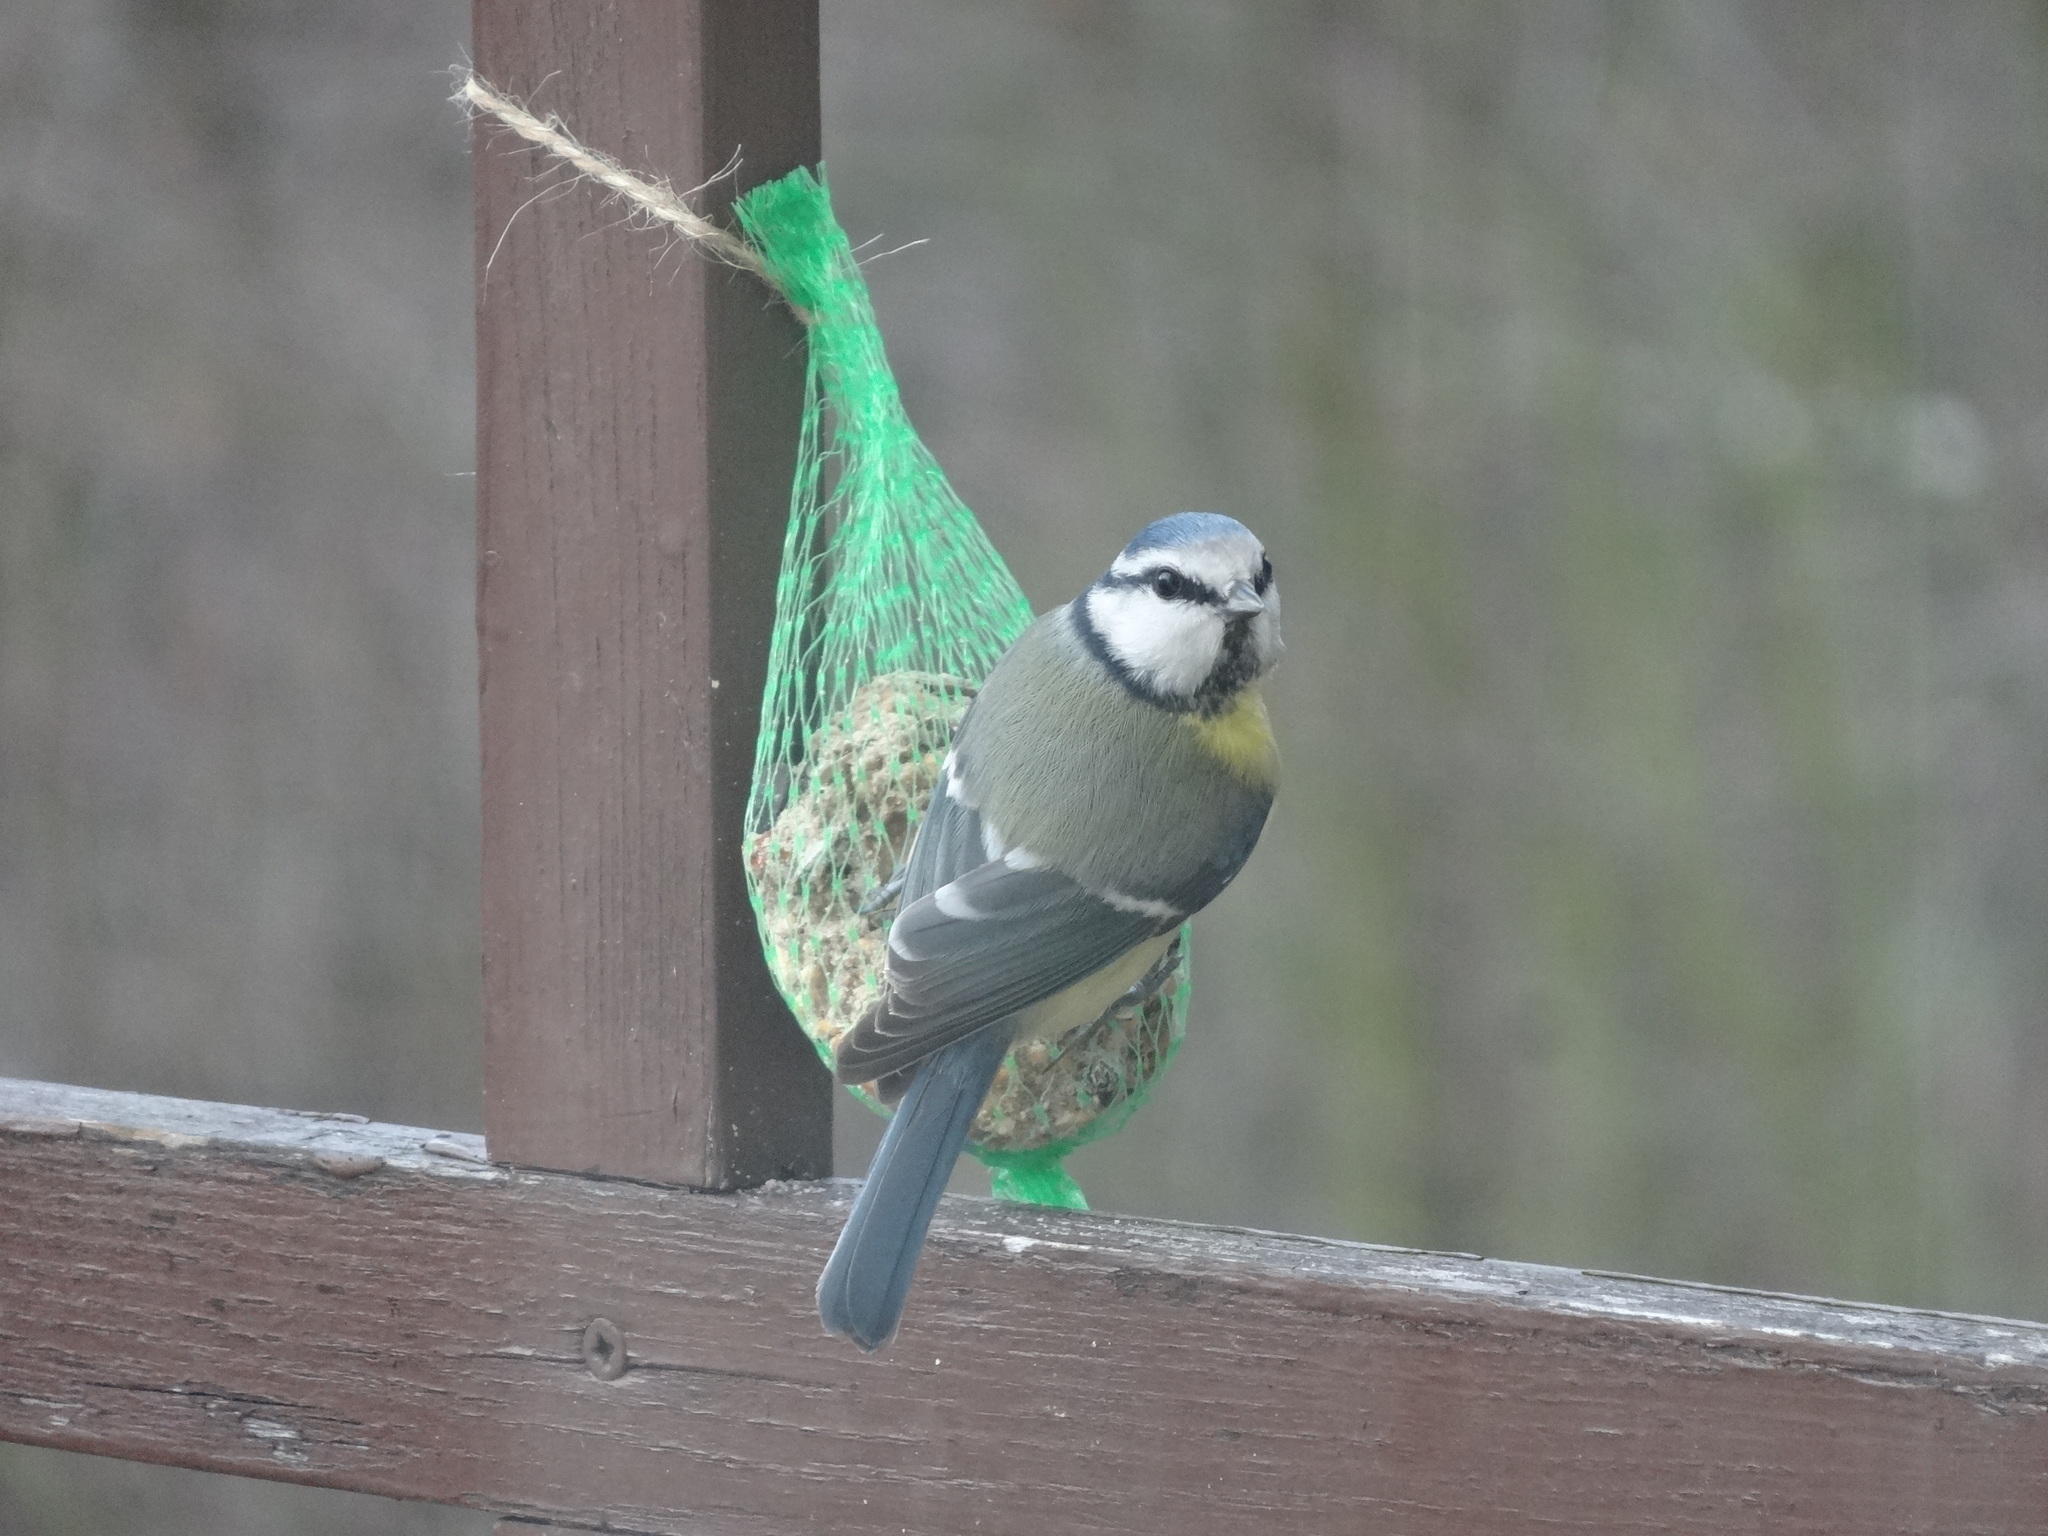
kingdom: Animalia
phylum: Chordata
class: Aves
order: Passeriformes
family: Paridae
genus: Cyanistes
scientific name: Cyanistes caeruleus
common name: Eurasian blue tit
